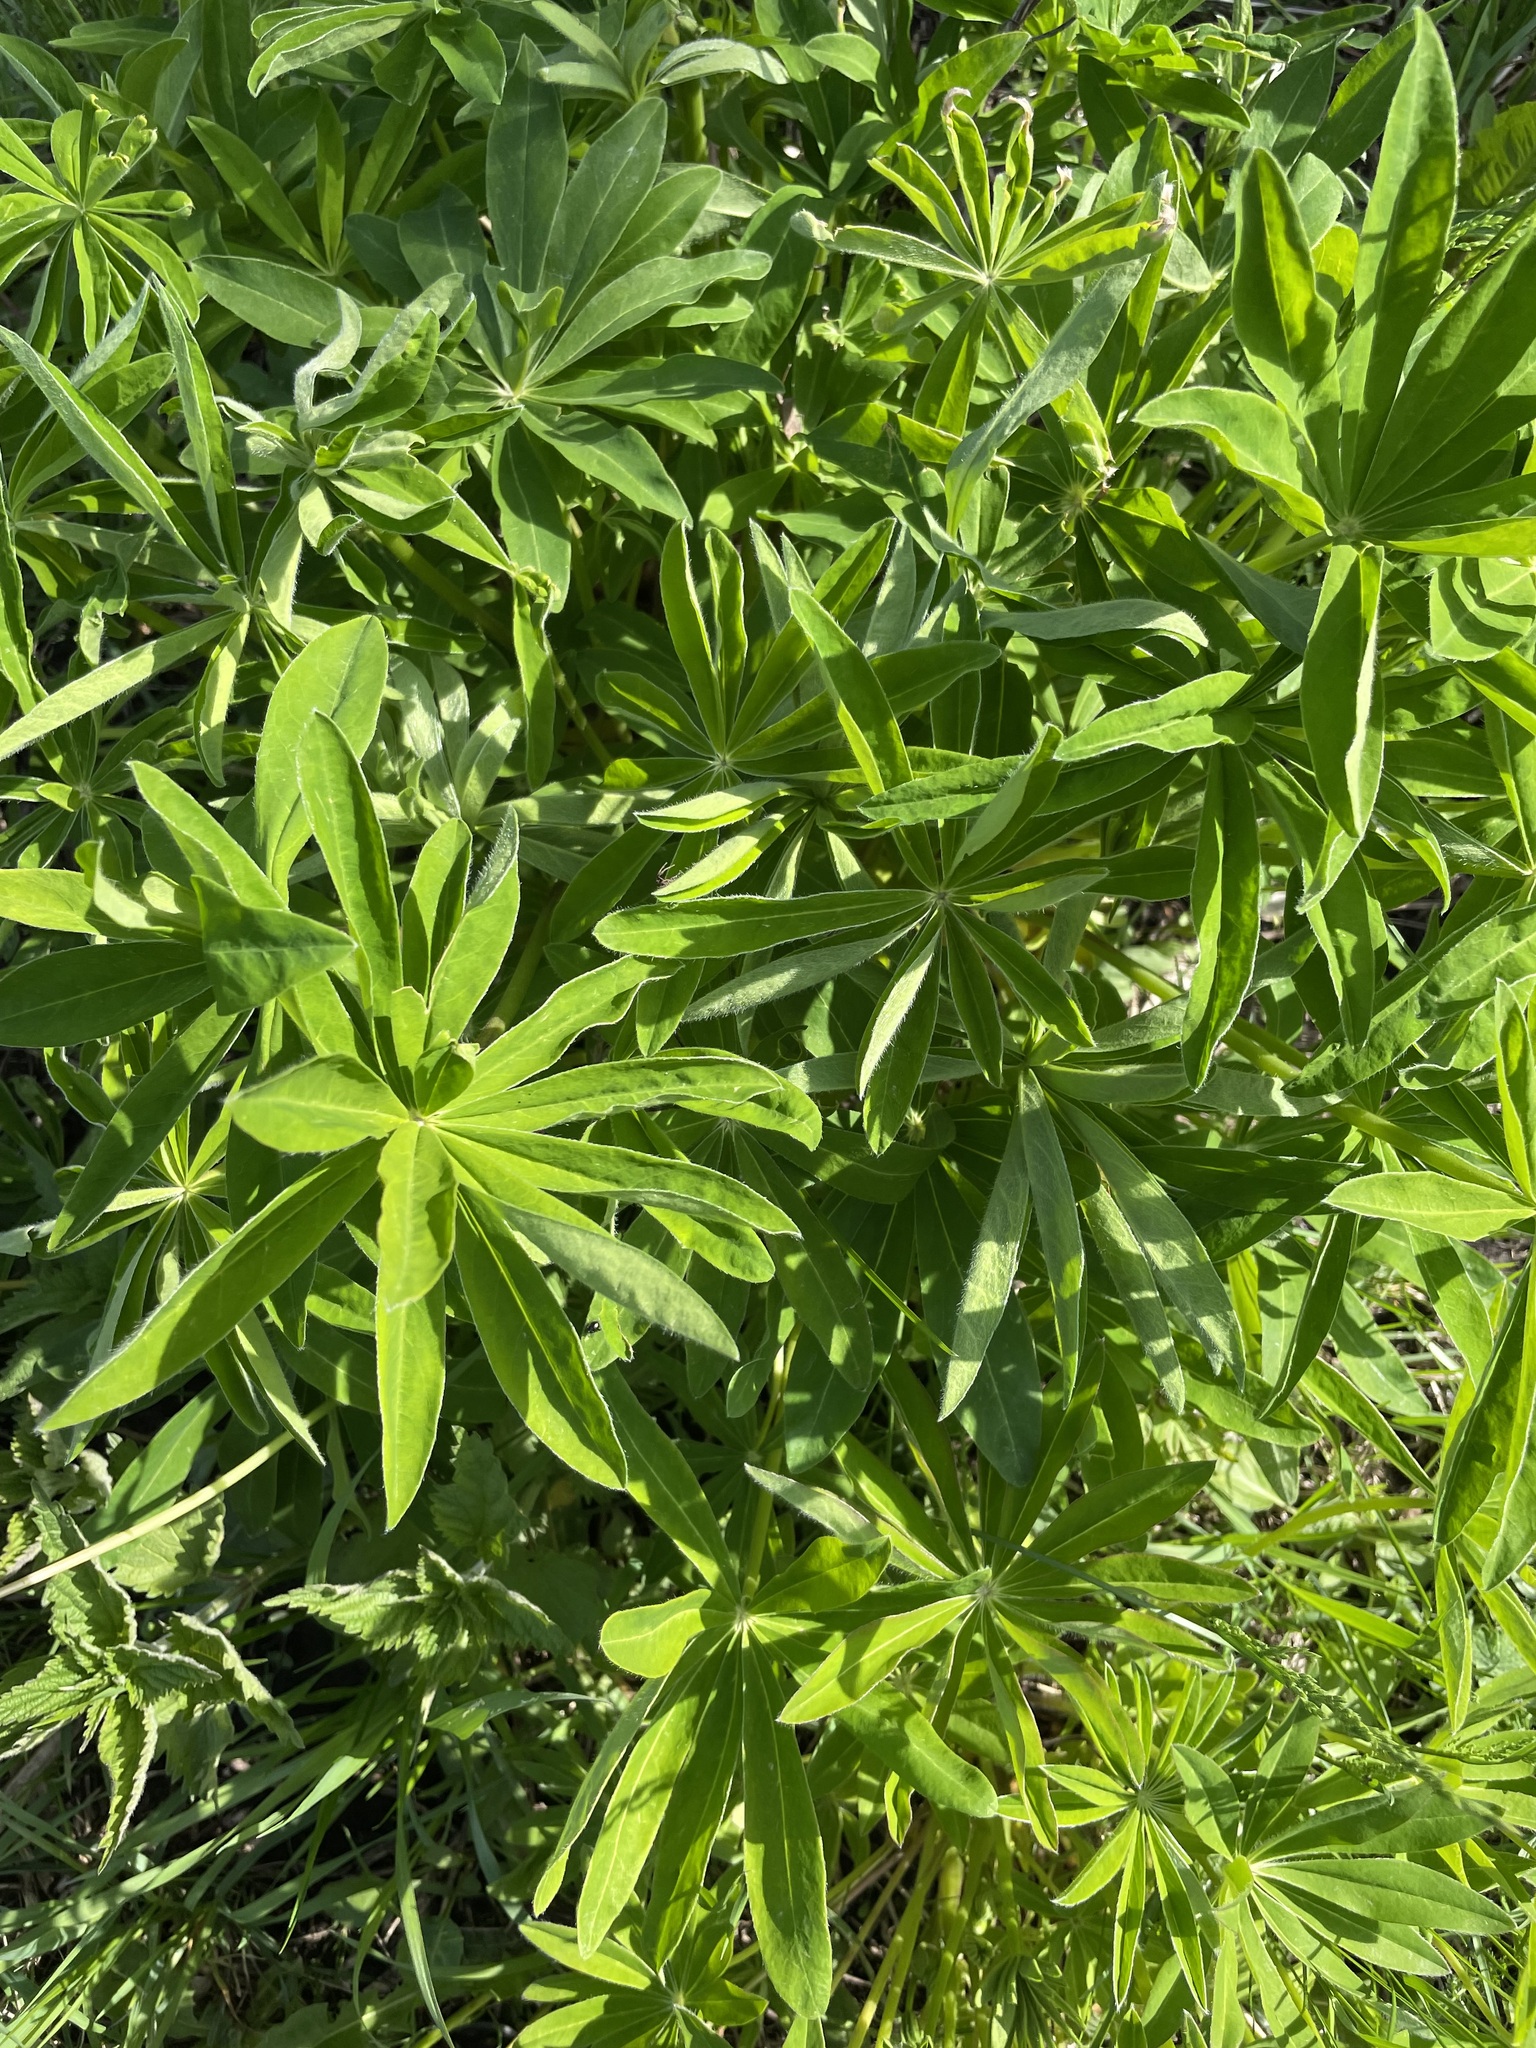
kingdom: Plantae
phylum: Tracheophyta
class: Magnoliopsida
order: Fabales
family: Fabaceae
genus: Lupinus
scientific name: Lupinus polyphyllus
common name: Garden lupin
